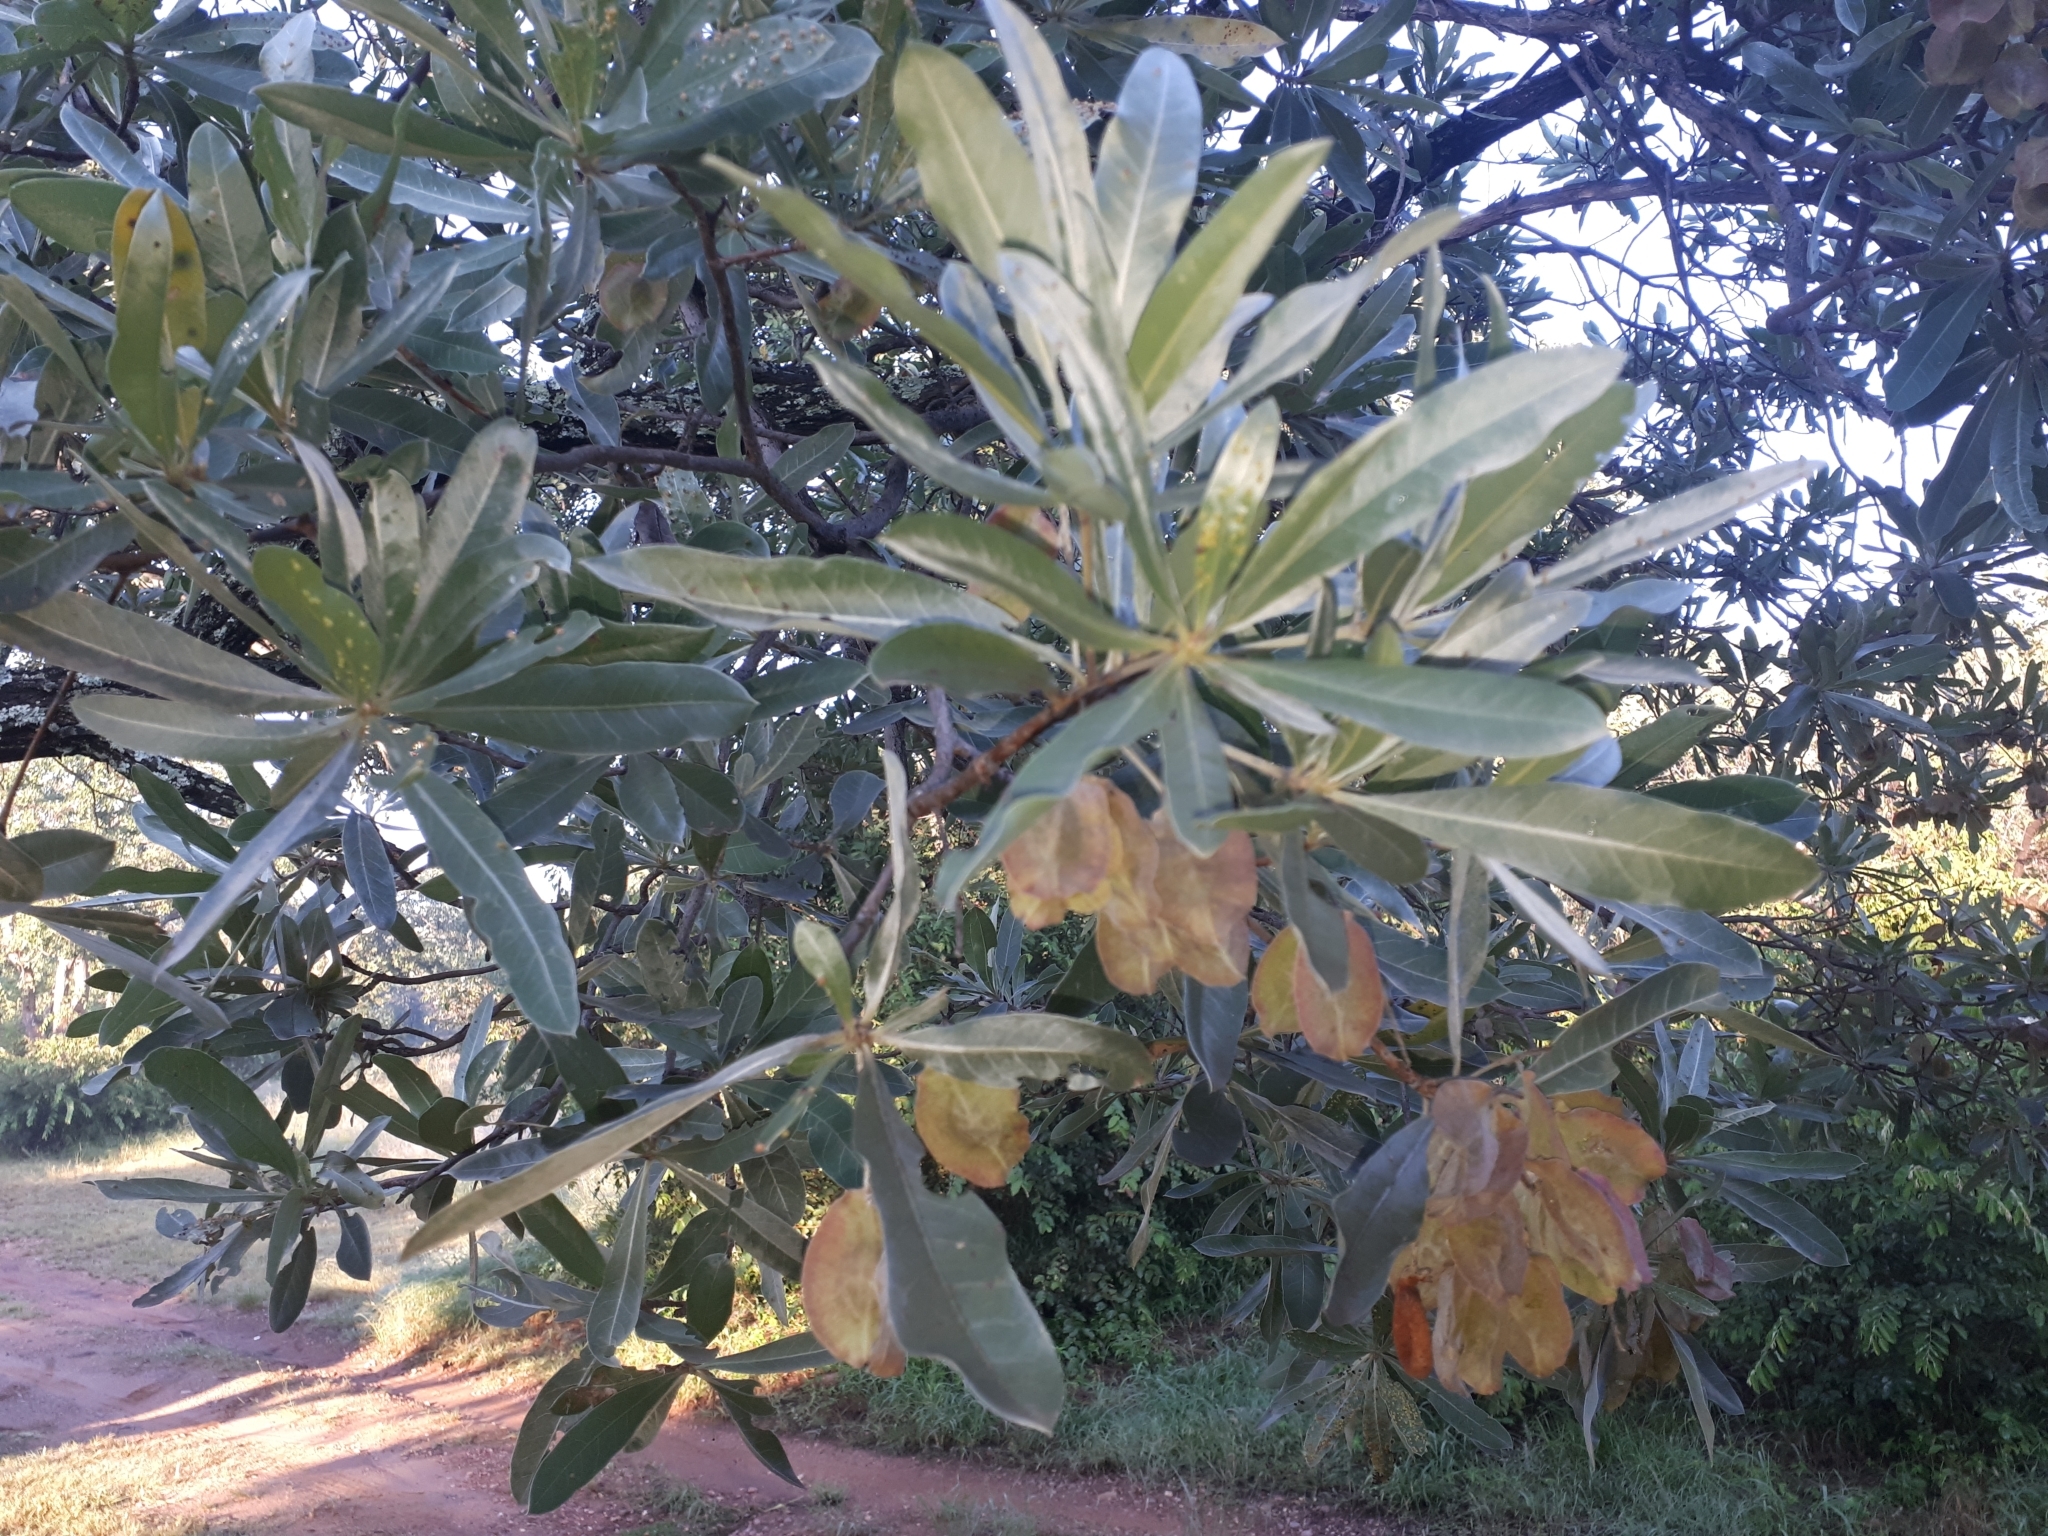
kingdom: Plantae
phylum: Tracheophyta
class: Magnoliopsida
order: Myrtales
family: Combretaceae
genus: Terminalia
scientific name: Terminalia sericea
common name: Clusterleaf
